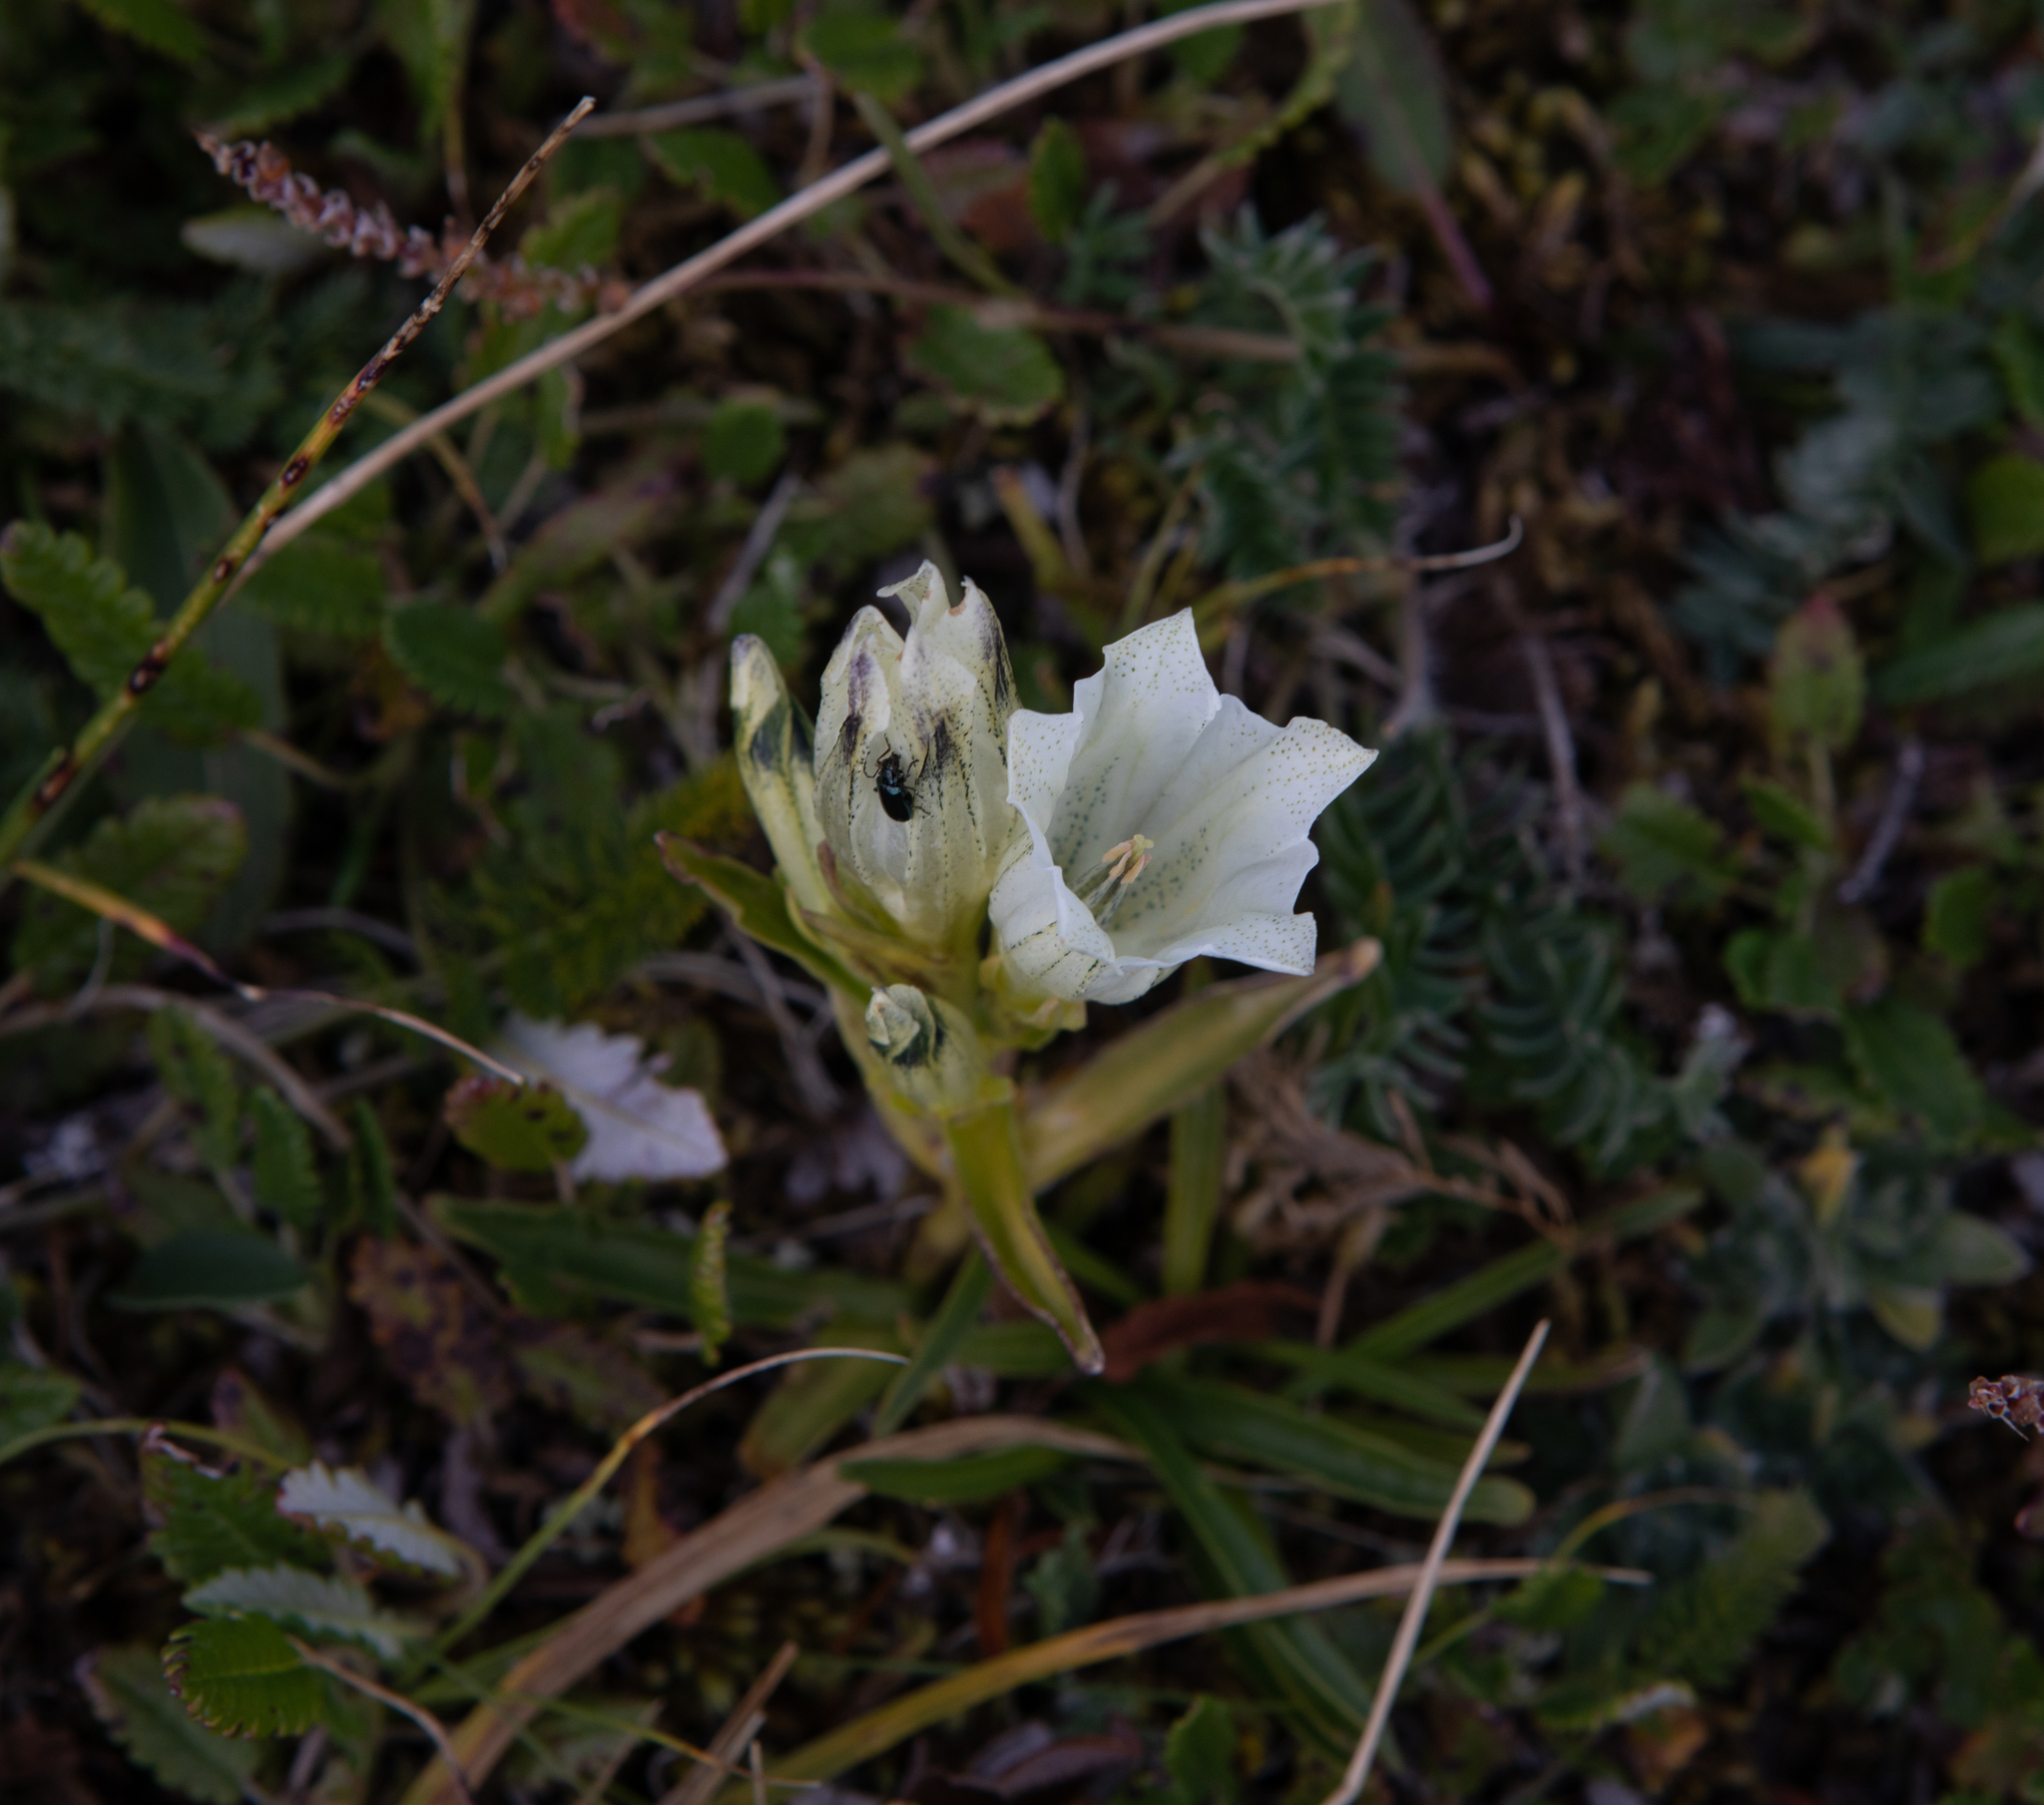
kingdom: Plantae
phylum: Tracheophyta
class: Magnoliopsida
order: Gentianales
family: Gentianaceae
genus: Gentiana
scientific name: Gentiana algida
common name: Arctic gentian
